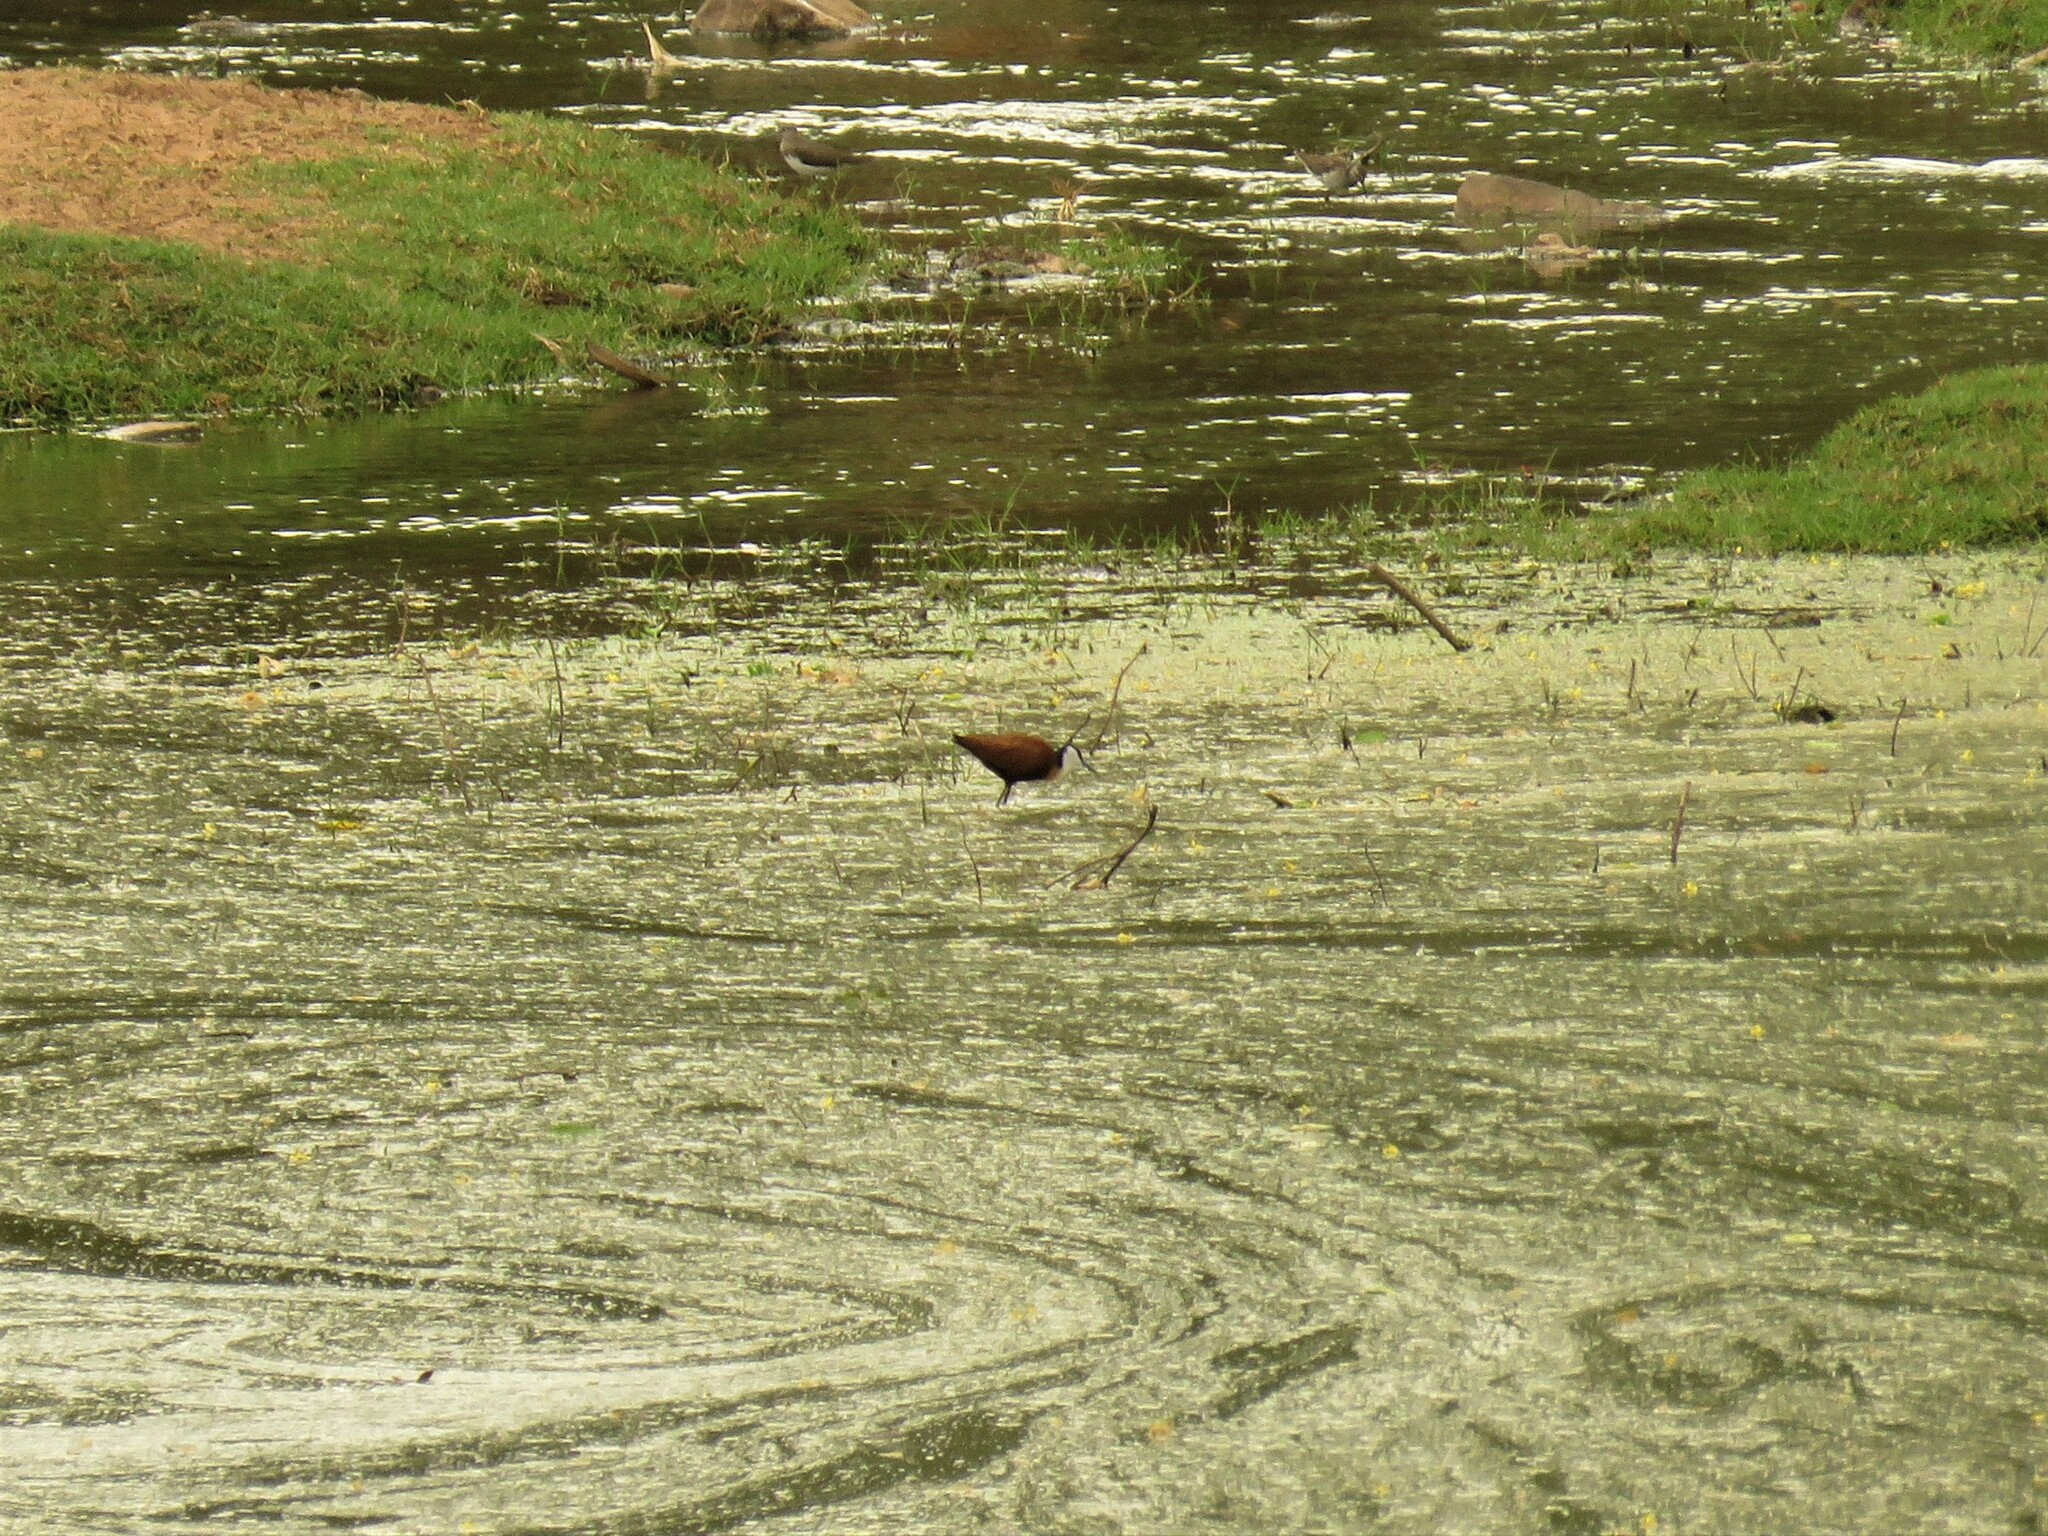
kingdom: Animalia
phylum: Chordata
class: Aves
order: Charadriiformes
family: Jacanidae
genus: Actophilornis
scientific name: Actophilornis africanus
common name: African jacana
